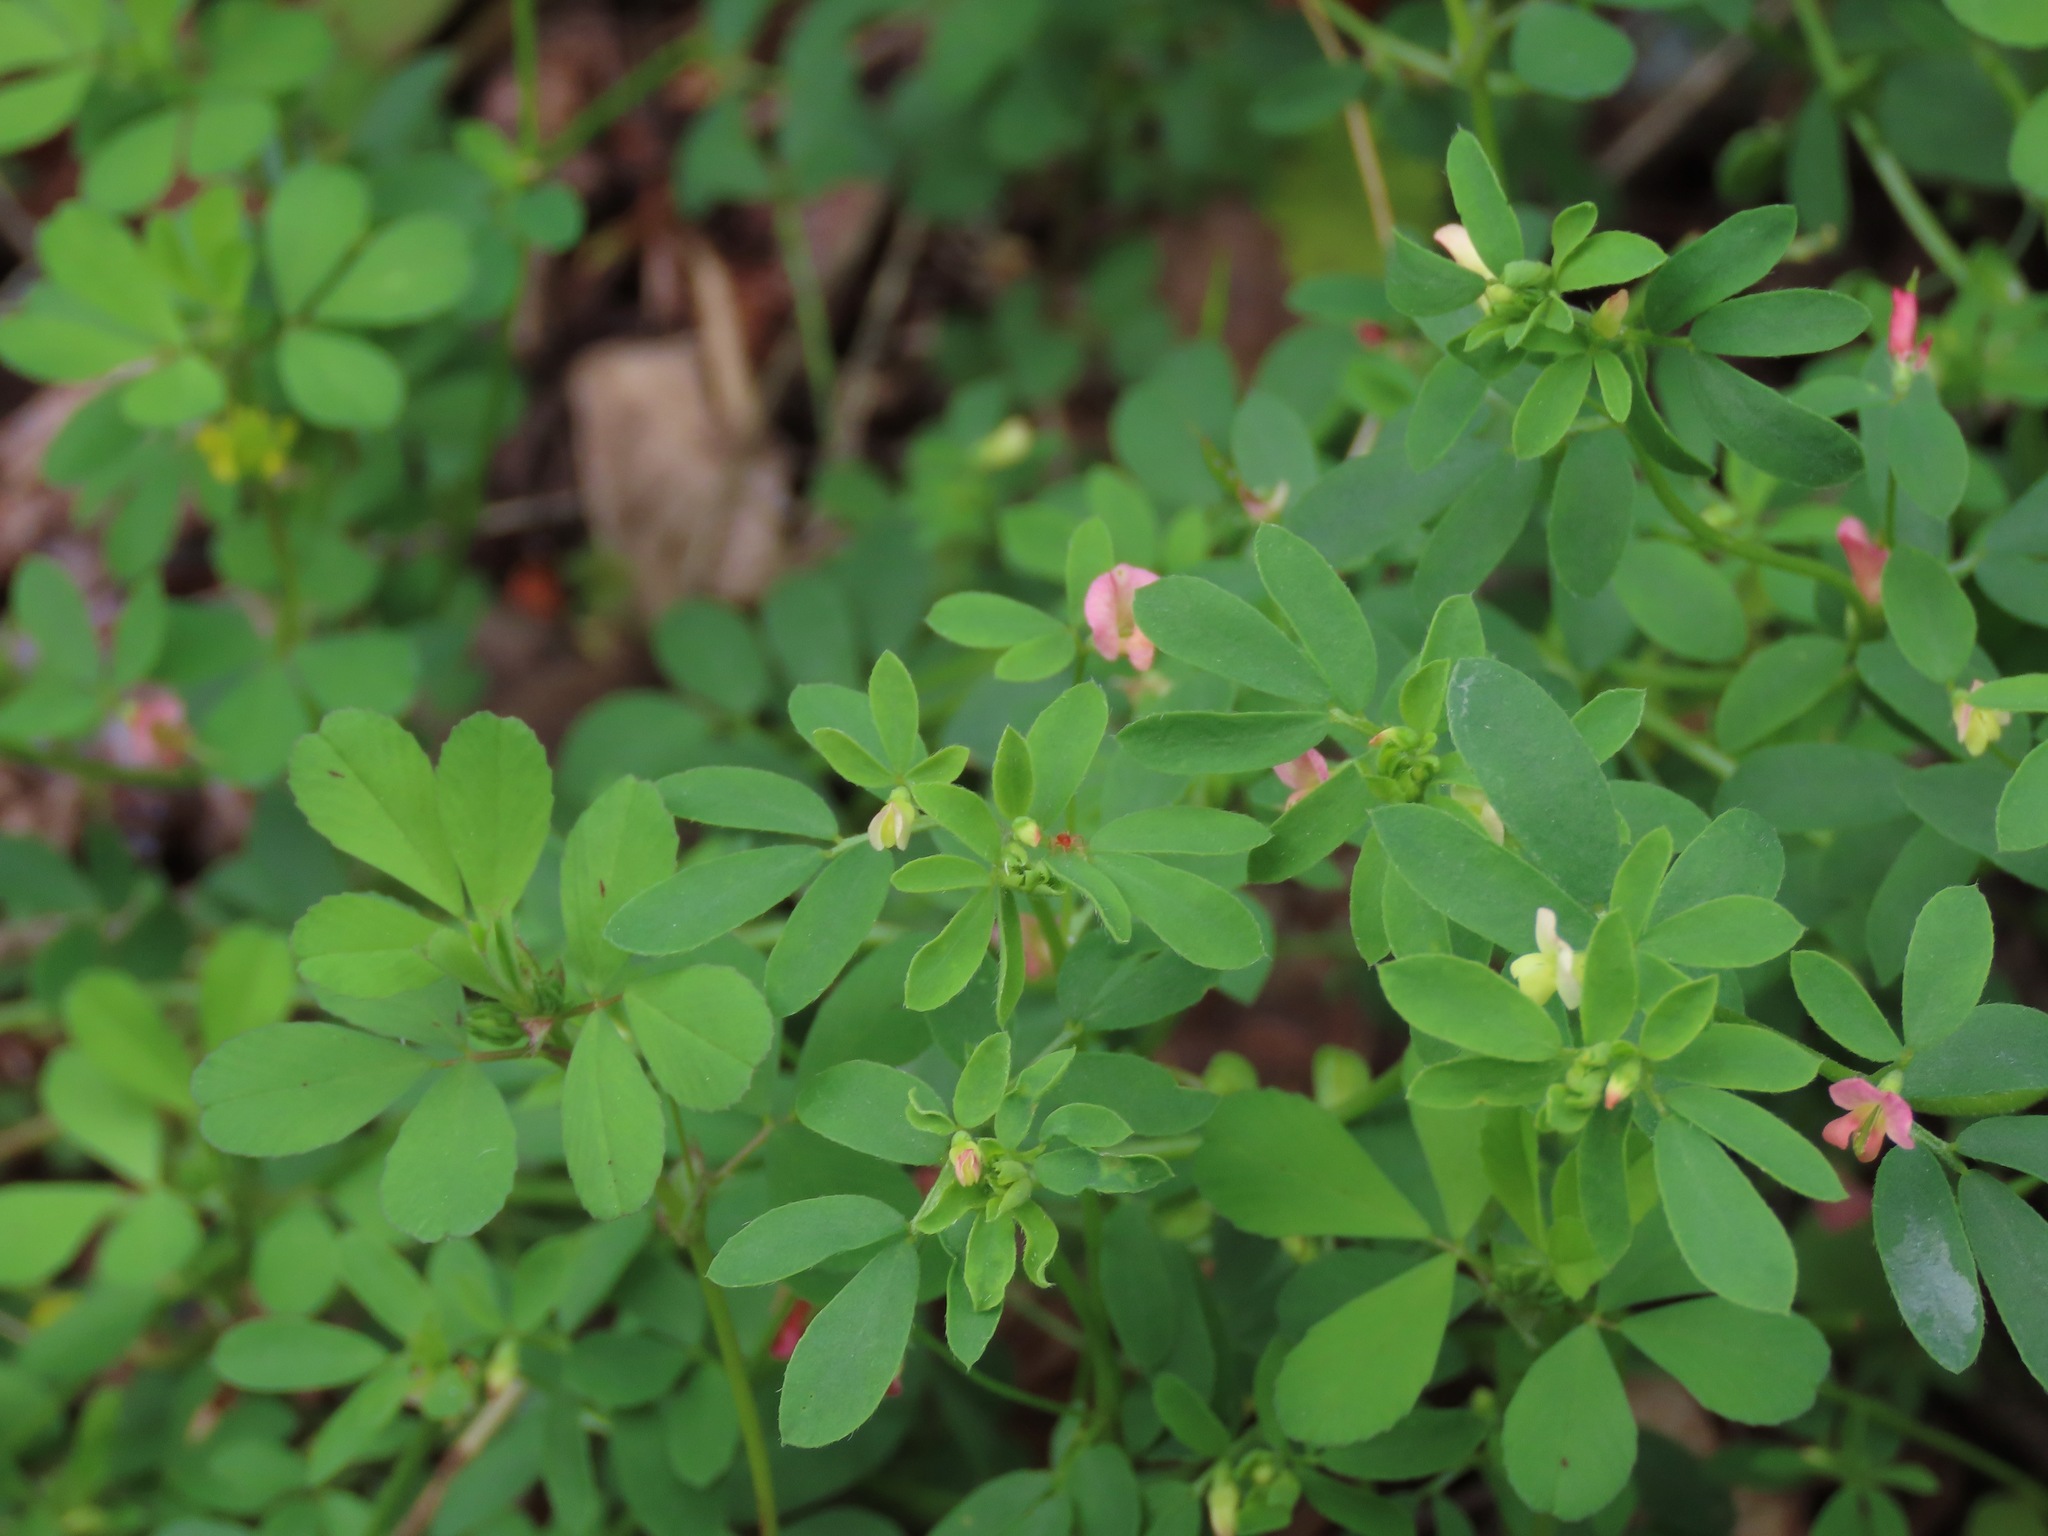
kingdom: Plantae
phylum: Tracheophyta
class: Magnoliopsida
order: Fabales
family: Fabaceae
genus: Acmispon
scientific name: Acmispon parviflorus
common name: Desert deer-vetch
